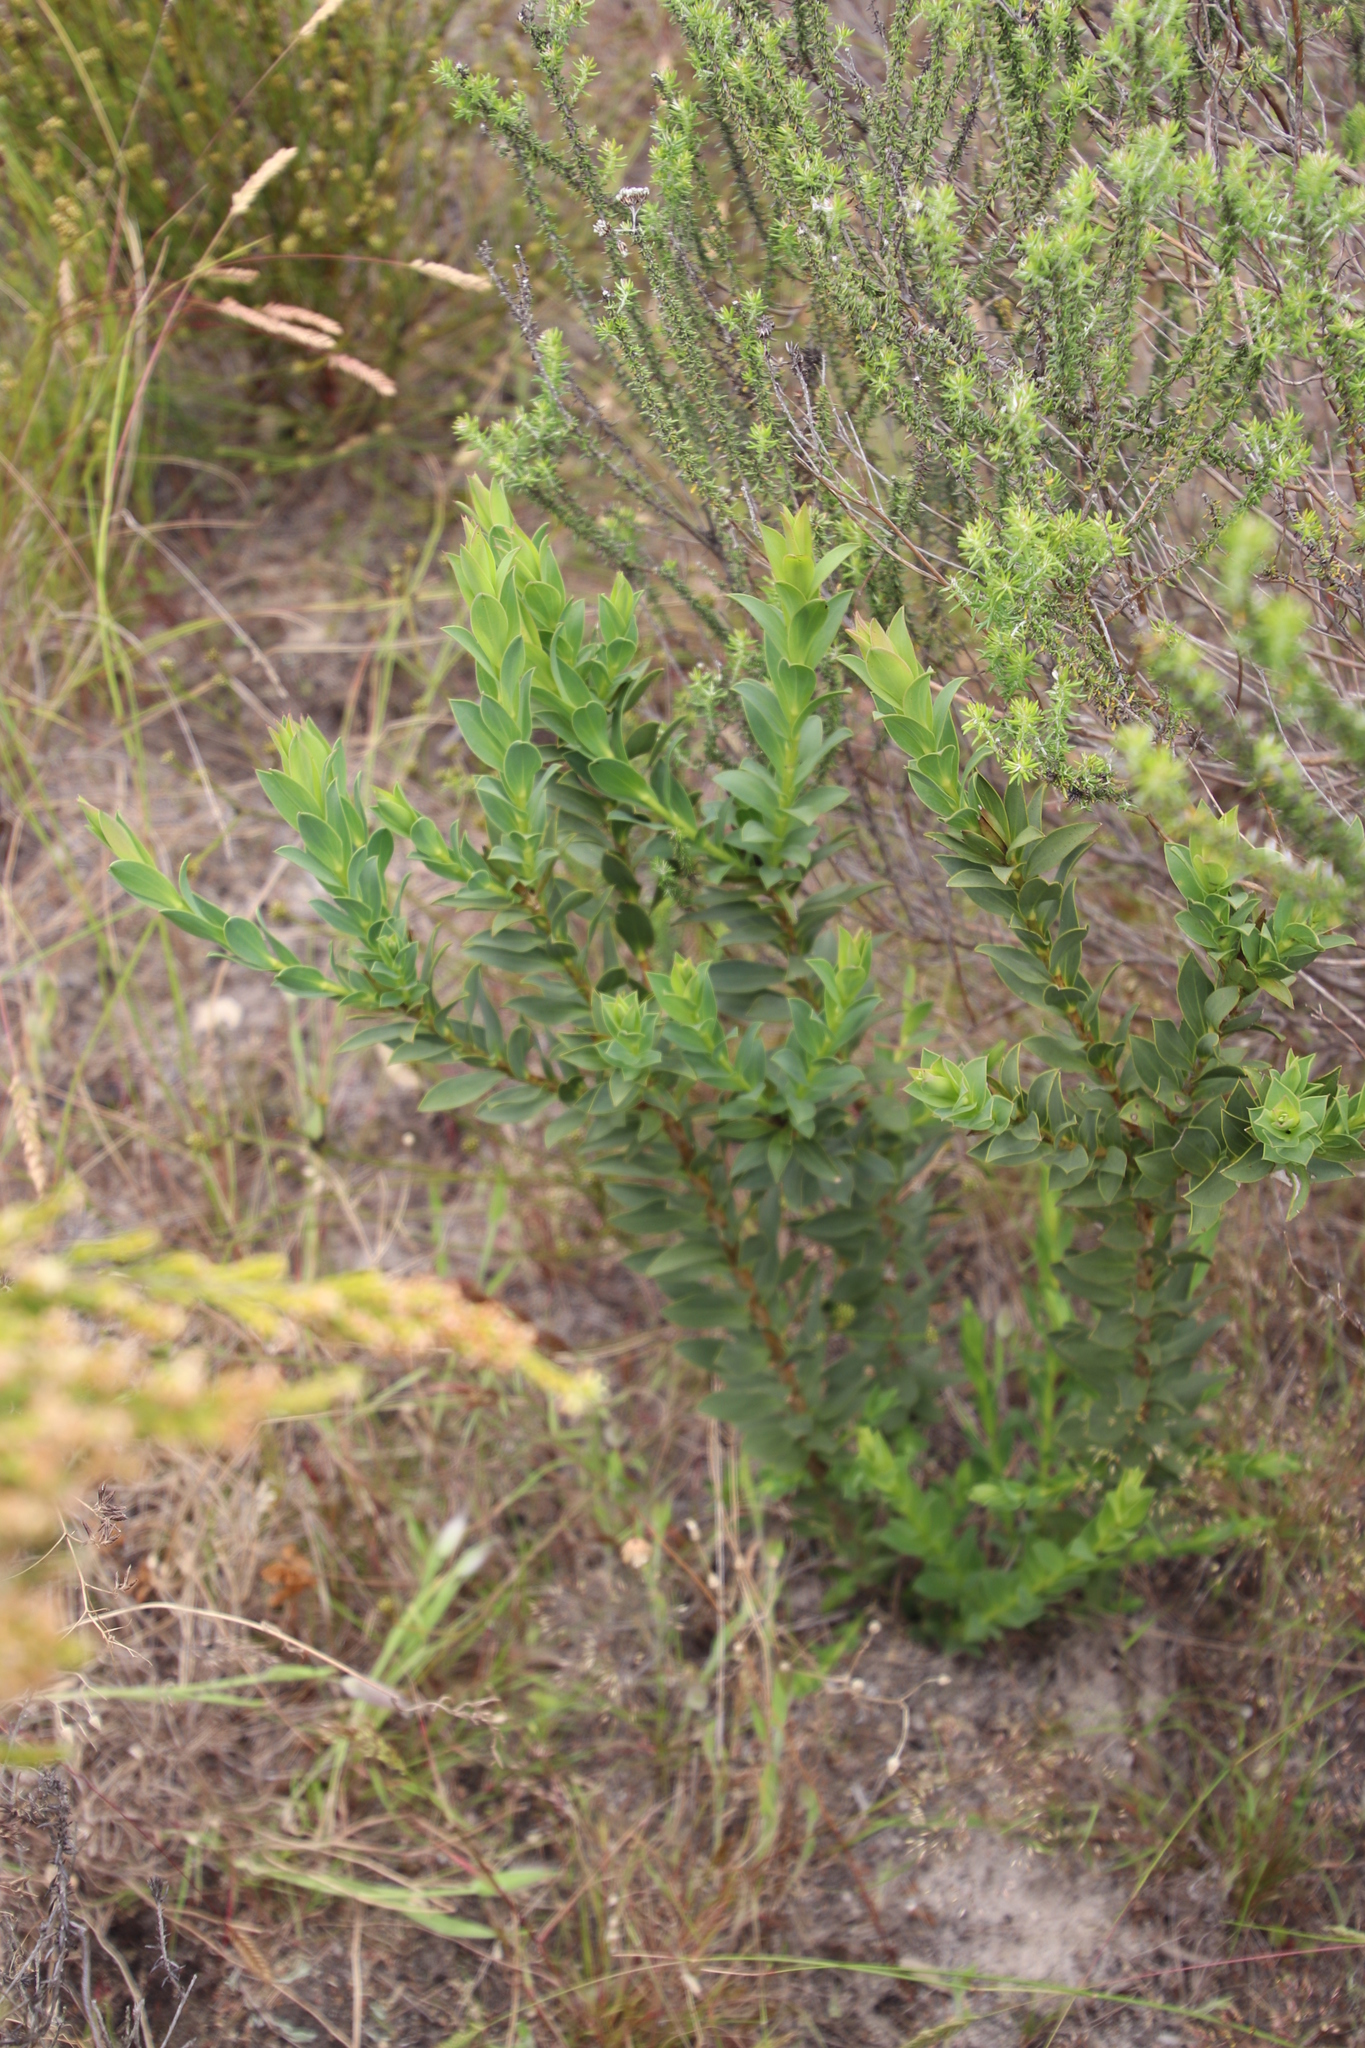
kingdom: Plantae
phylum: Tracheophyta
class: Magnoliopsida
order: Fabales
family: Fabaceae
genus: Liparia
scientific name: Liparia splendens
